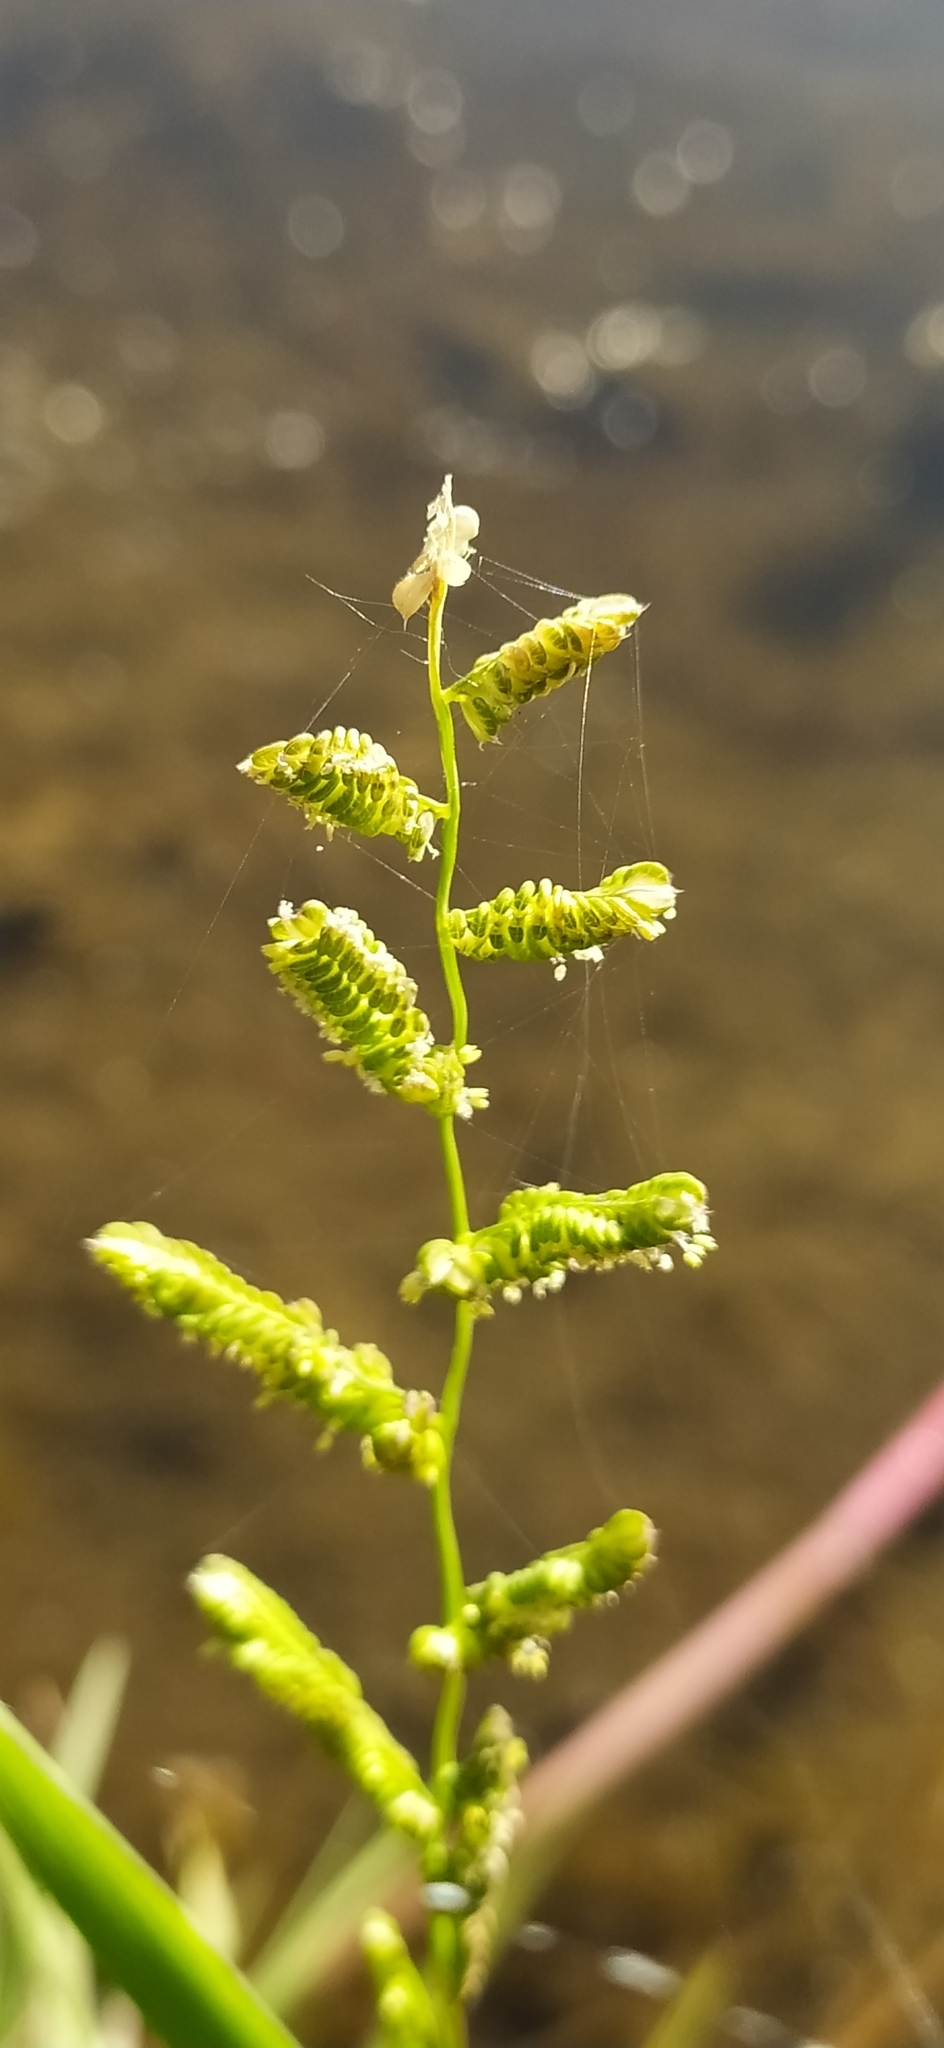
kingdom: Plantae
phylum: Tracheophyta
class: Liliopsida
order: Poales
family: Poaceae
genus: Beckmannia
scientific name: Beckmannia syzigachne
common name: American slough-grass
